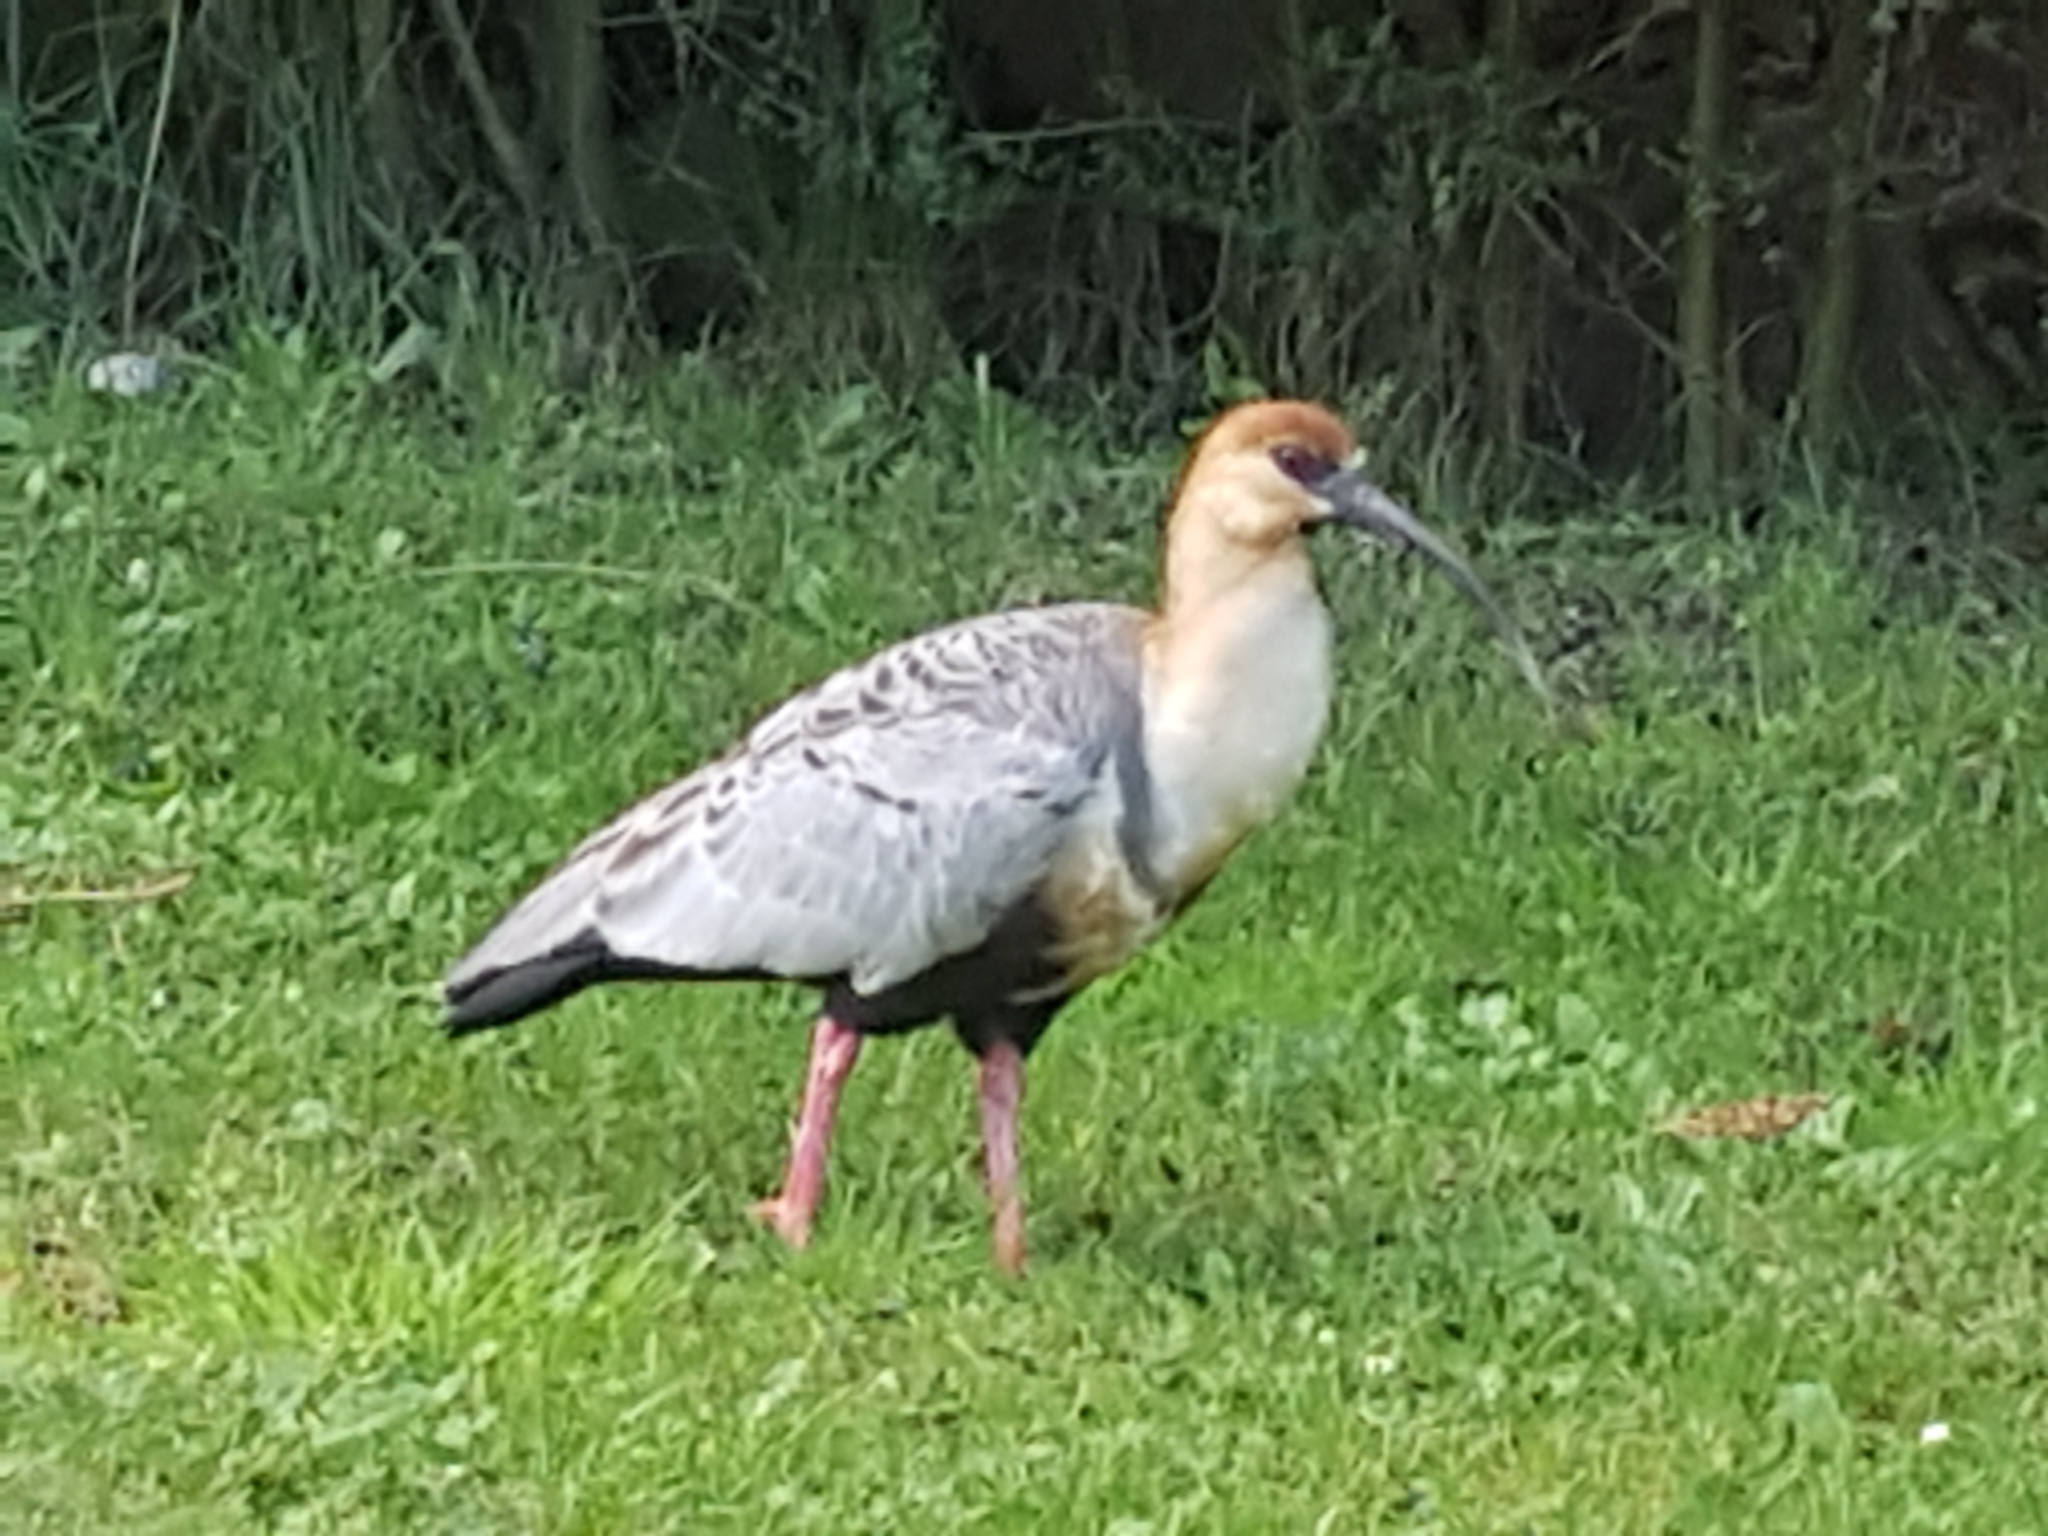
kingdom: Animalia
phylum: Chordata
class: Aves
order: Pelecaniformes
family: Threskiornithidae
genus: Theristicus
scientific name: Theristicus melanopis
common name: Black-faced ibis
